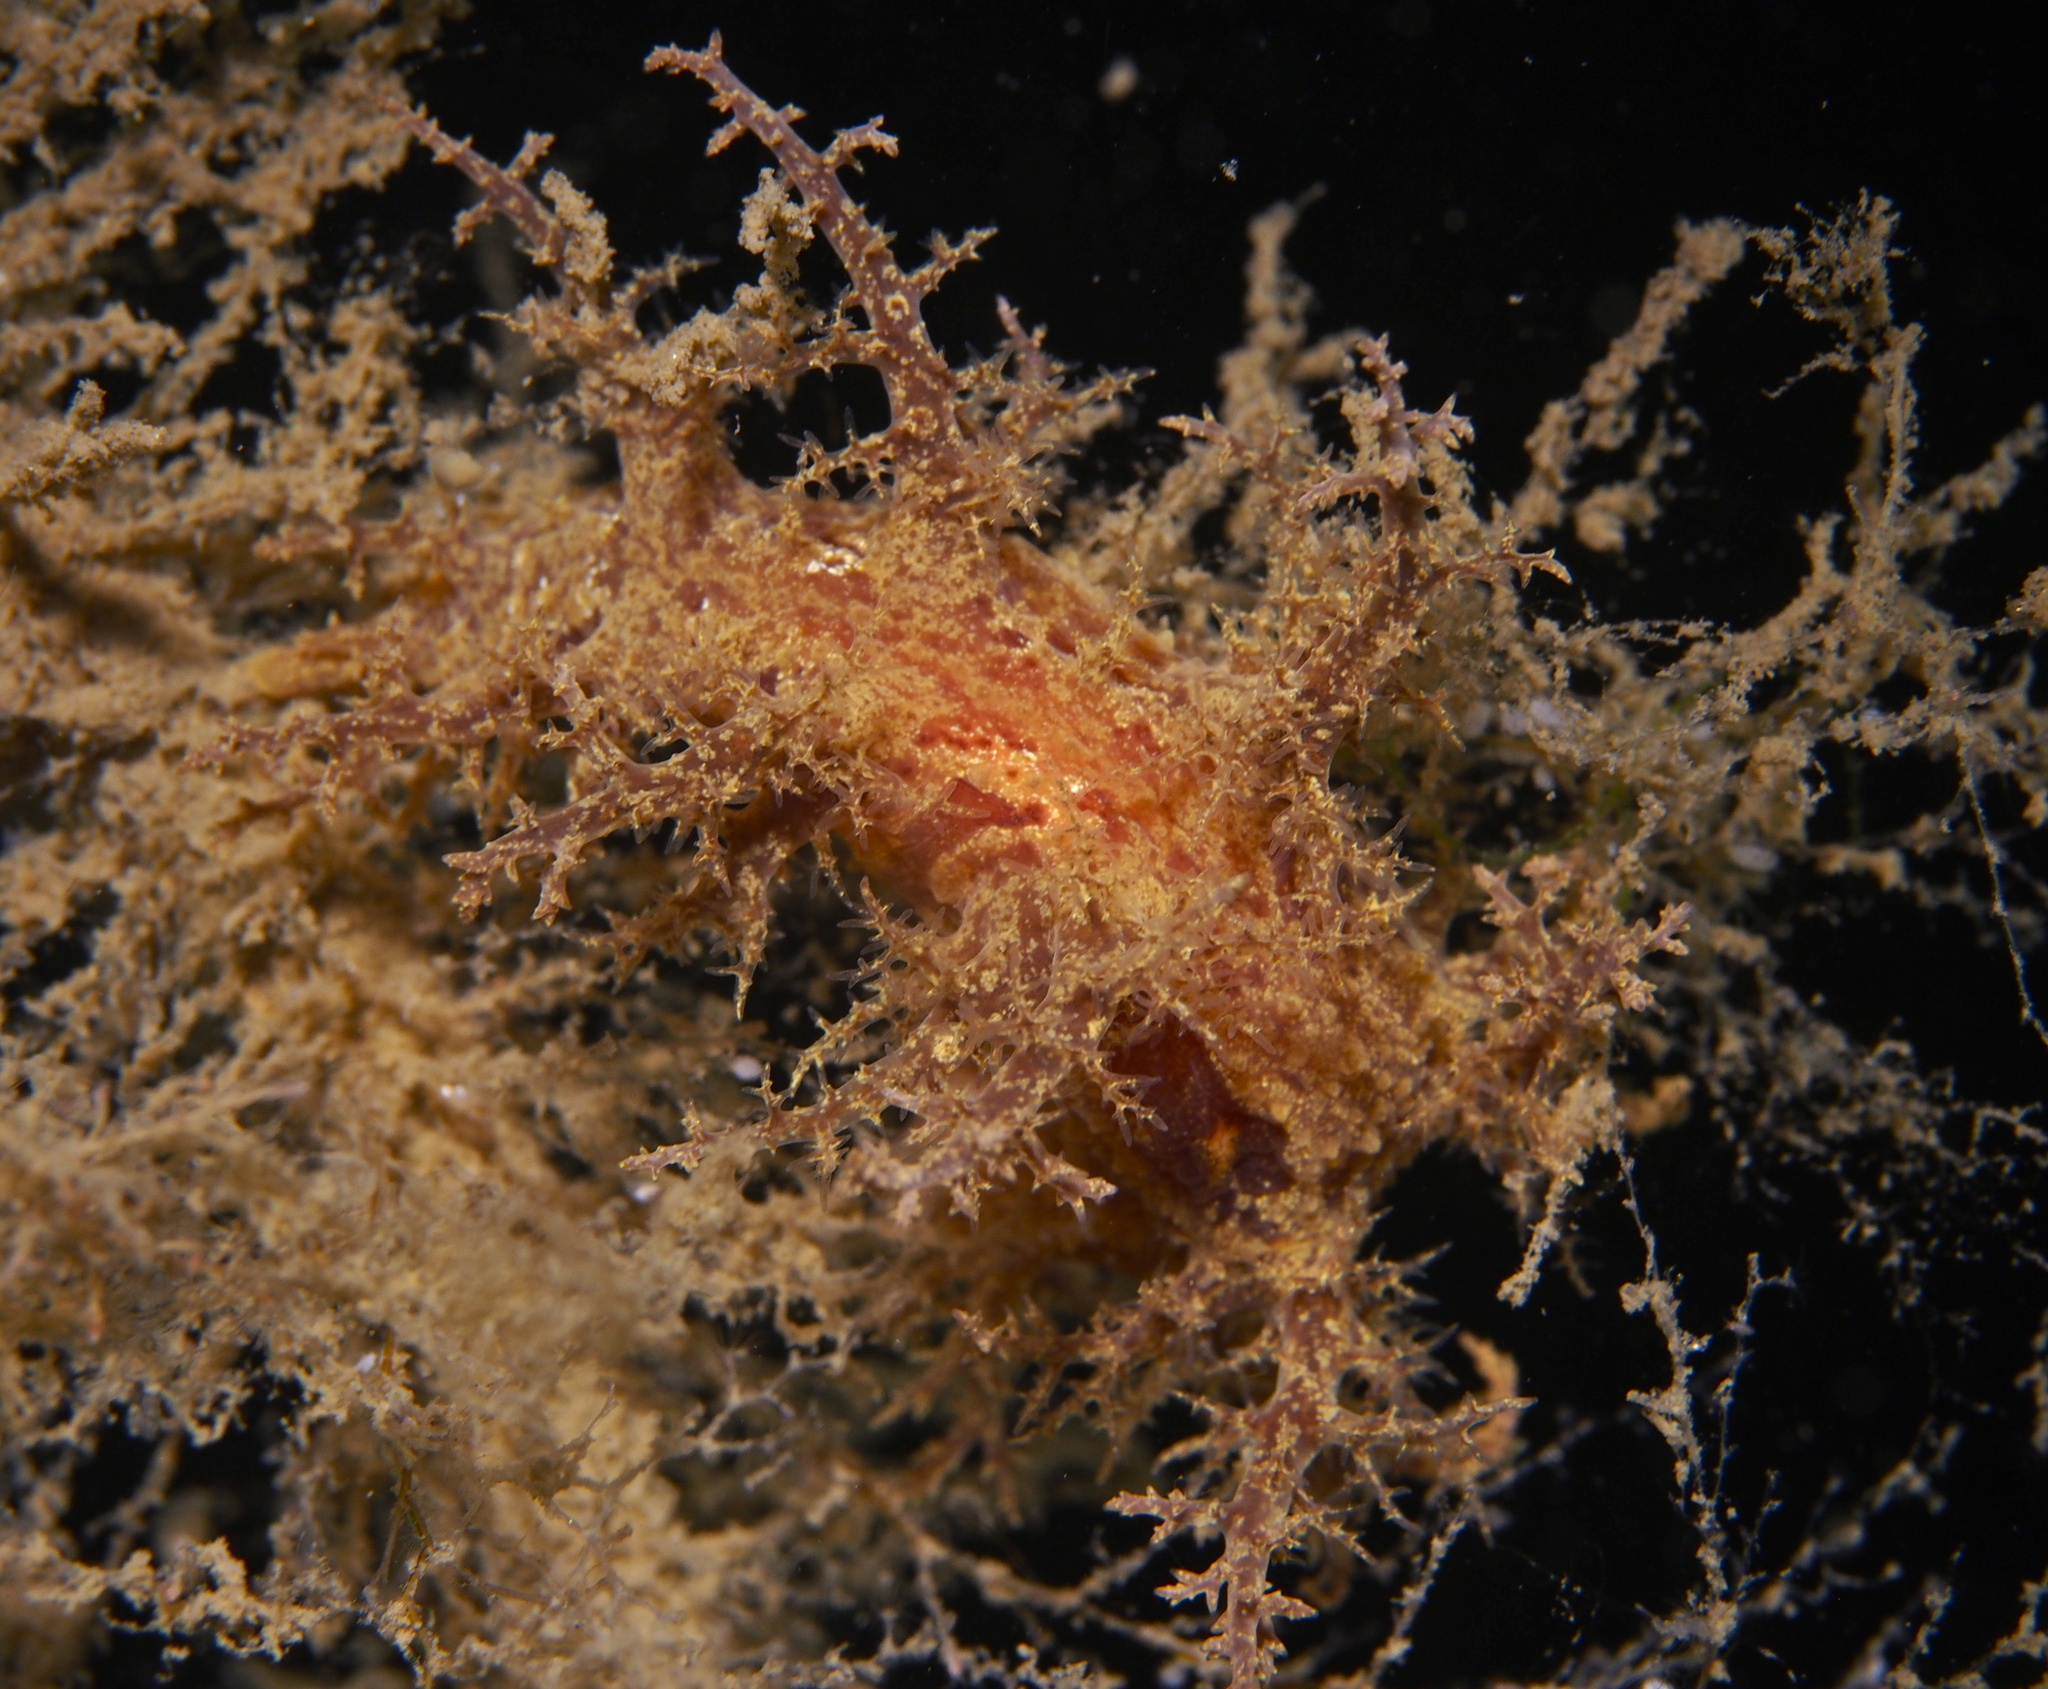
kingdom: Animalia
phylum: Mollusca
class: Gastropoda
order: Nudibranchia
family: Dendronotidae
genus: Dendronotus
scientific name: Dendronotus europaeus
